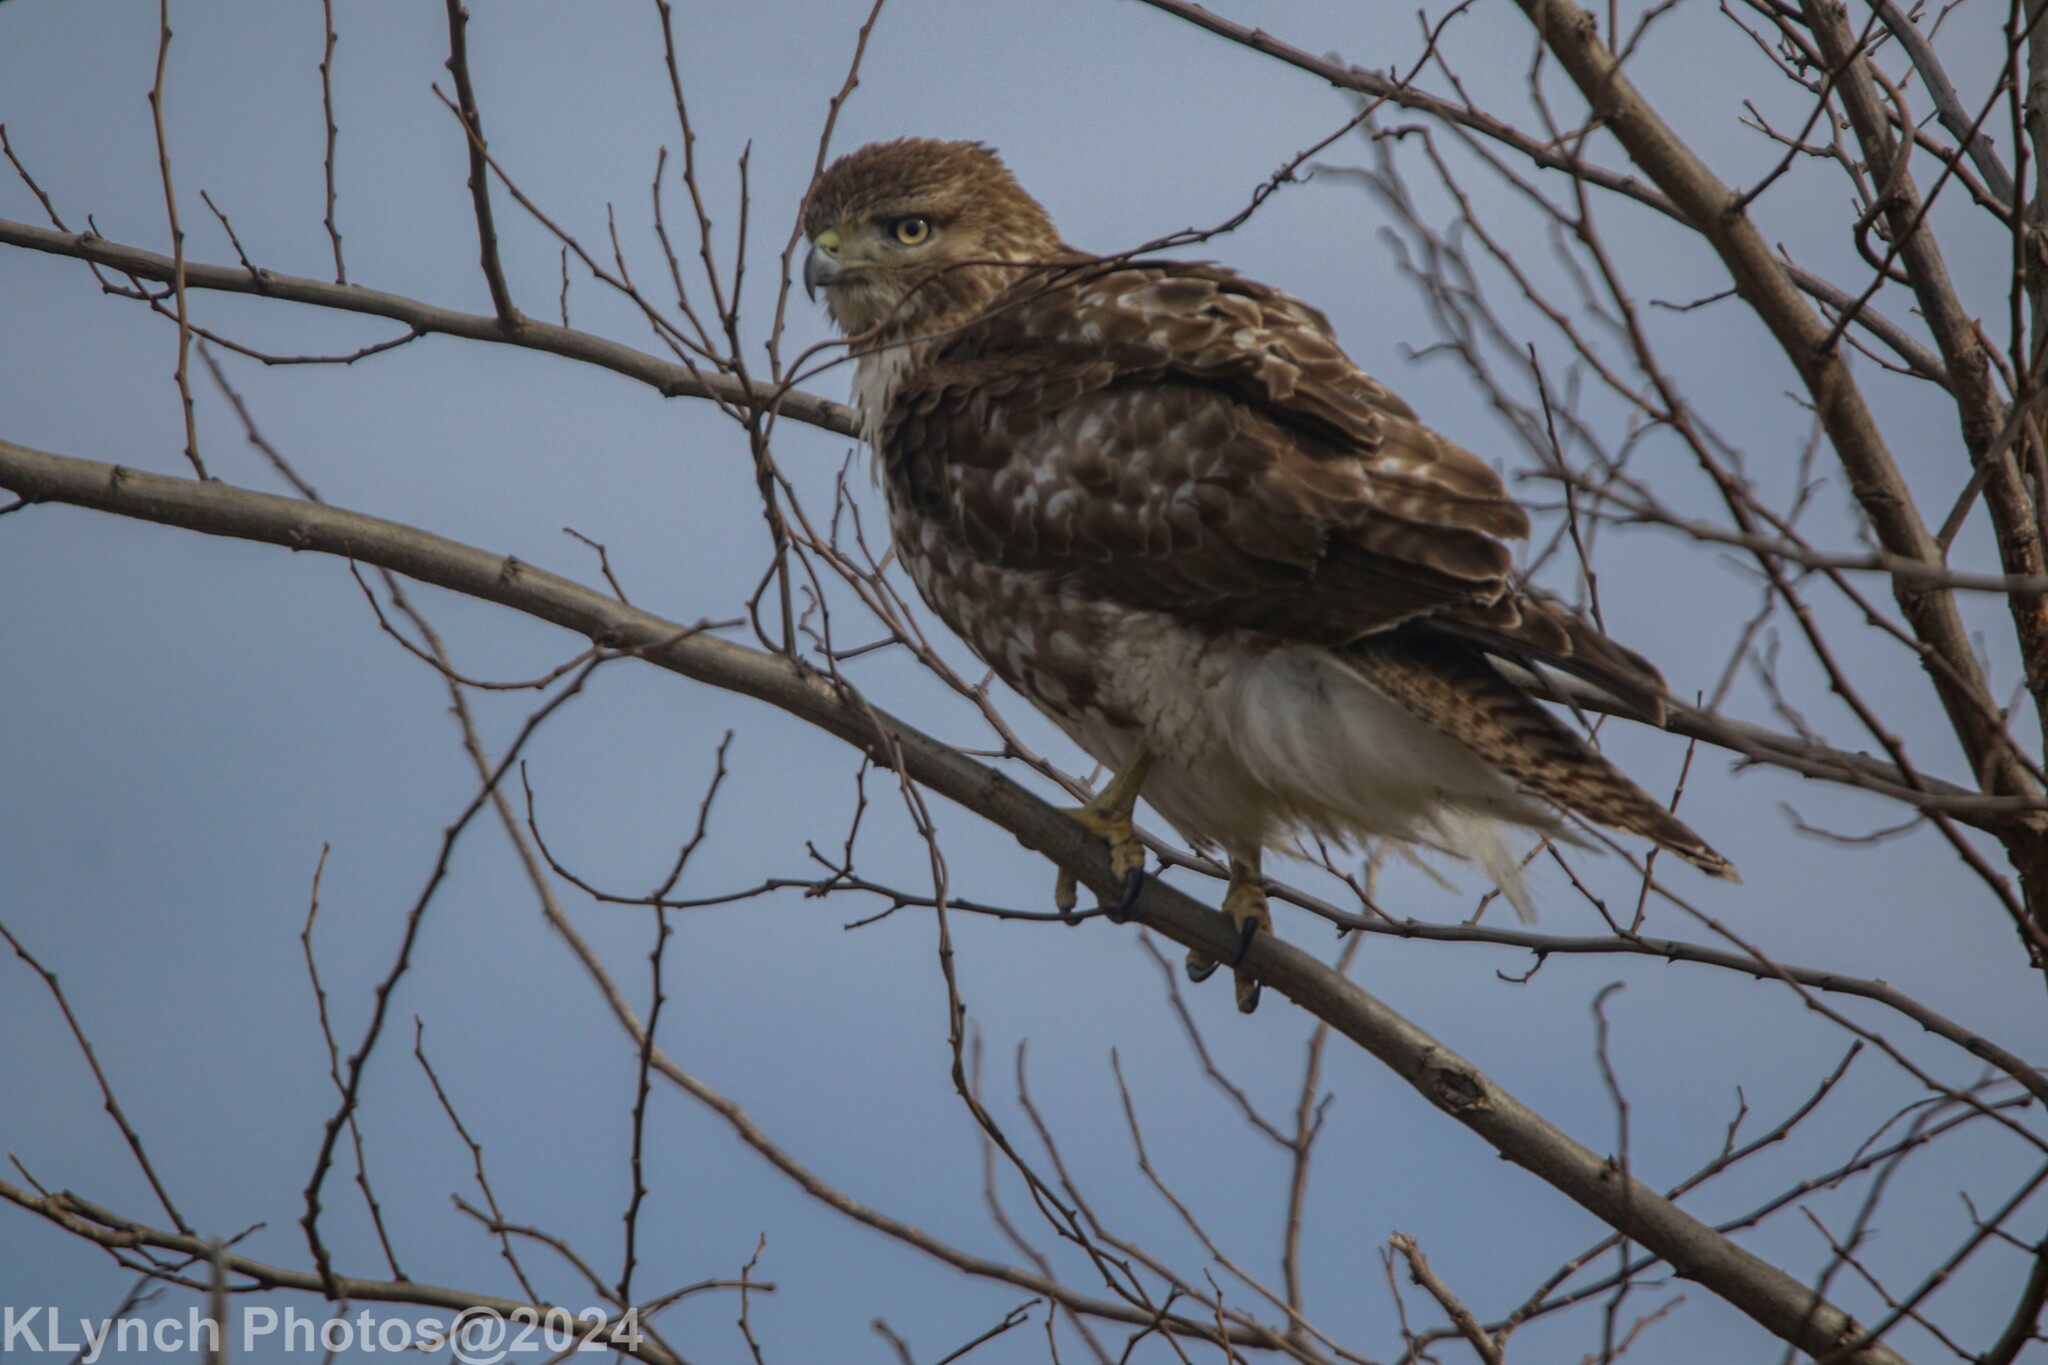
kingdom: Animalia
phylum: Chordata
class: Aves
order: Accipitriformes
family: Accipitridae
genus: Buteo
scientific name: Buteo jamaicensis
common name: Red-tailed hawk
